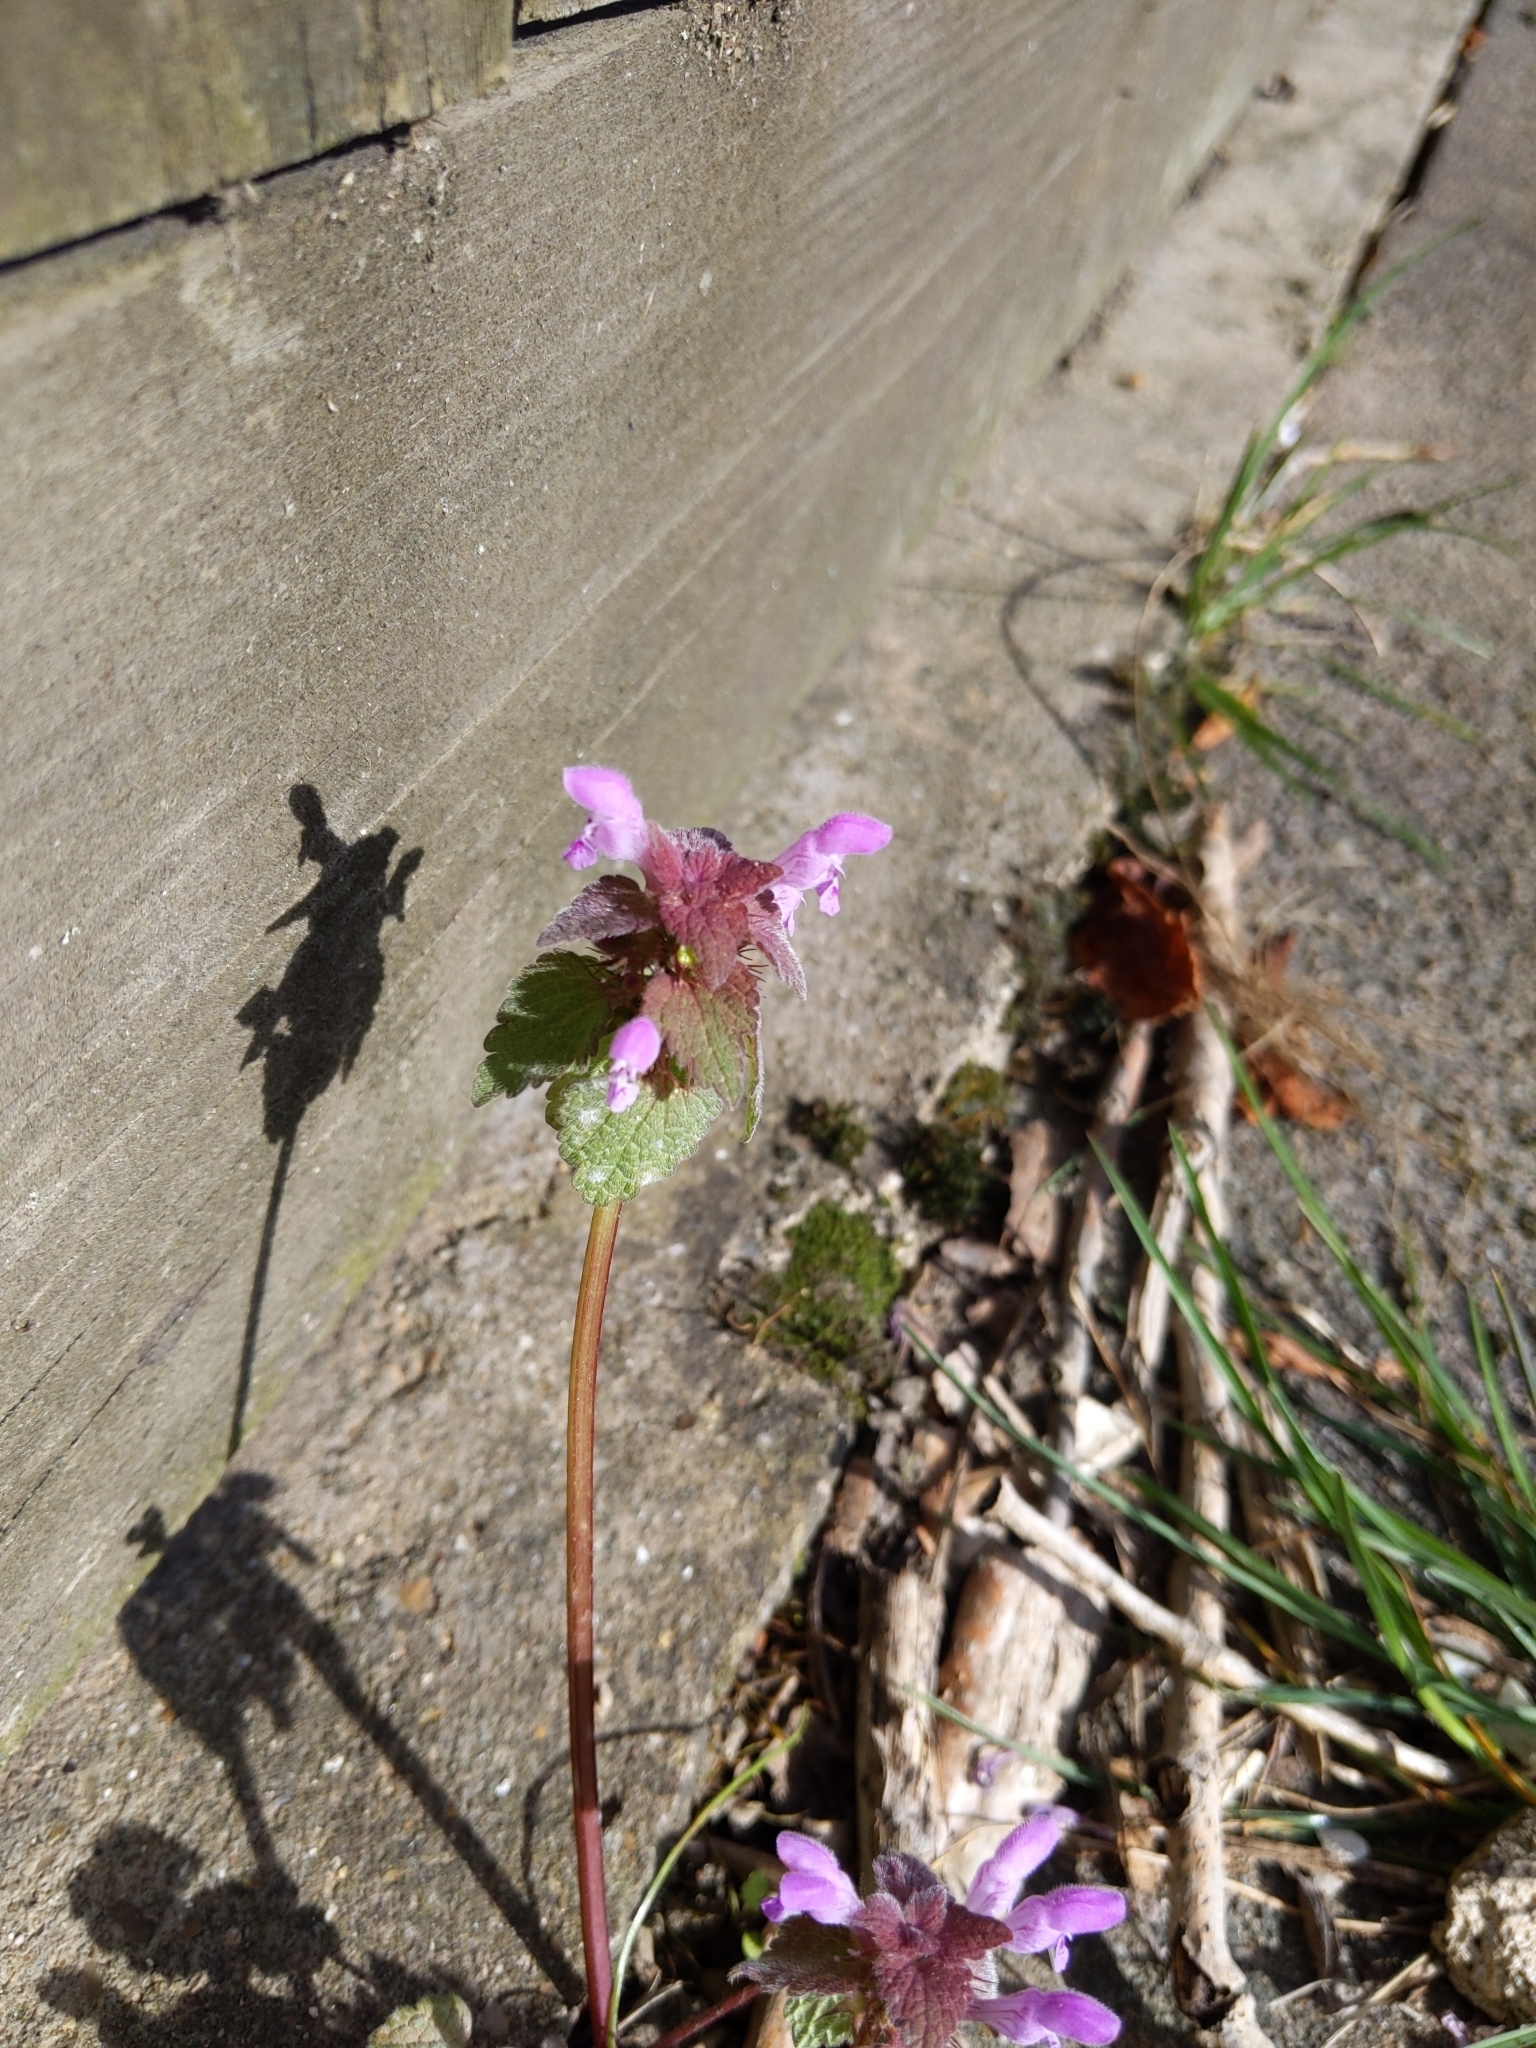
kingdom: Plantae
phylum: Tracheophyta
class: Magnoliopsida
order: Lamiales
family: Lamiaceae
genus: Lamium
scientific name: Lamium purpureum
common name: Red dead-nettle
